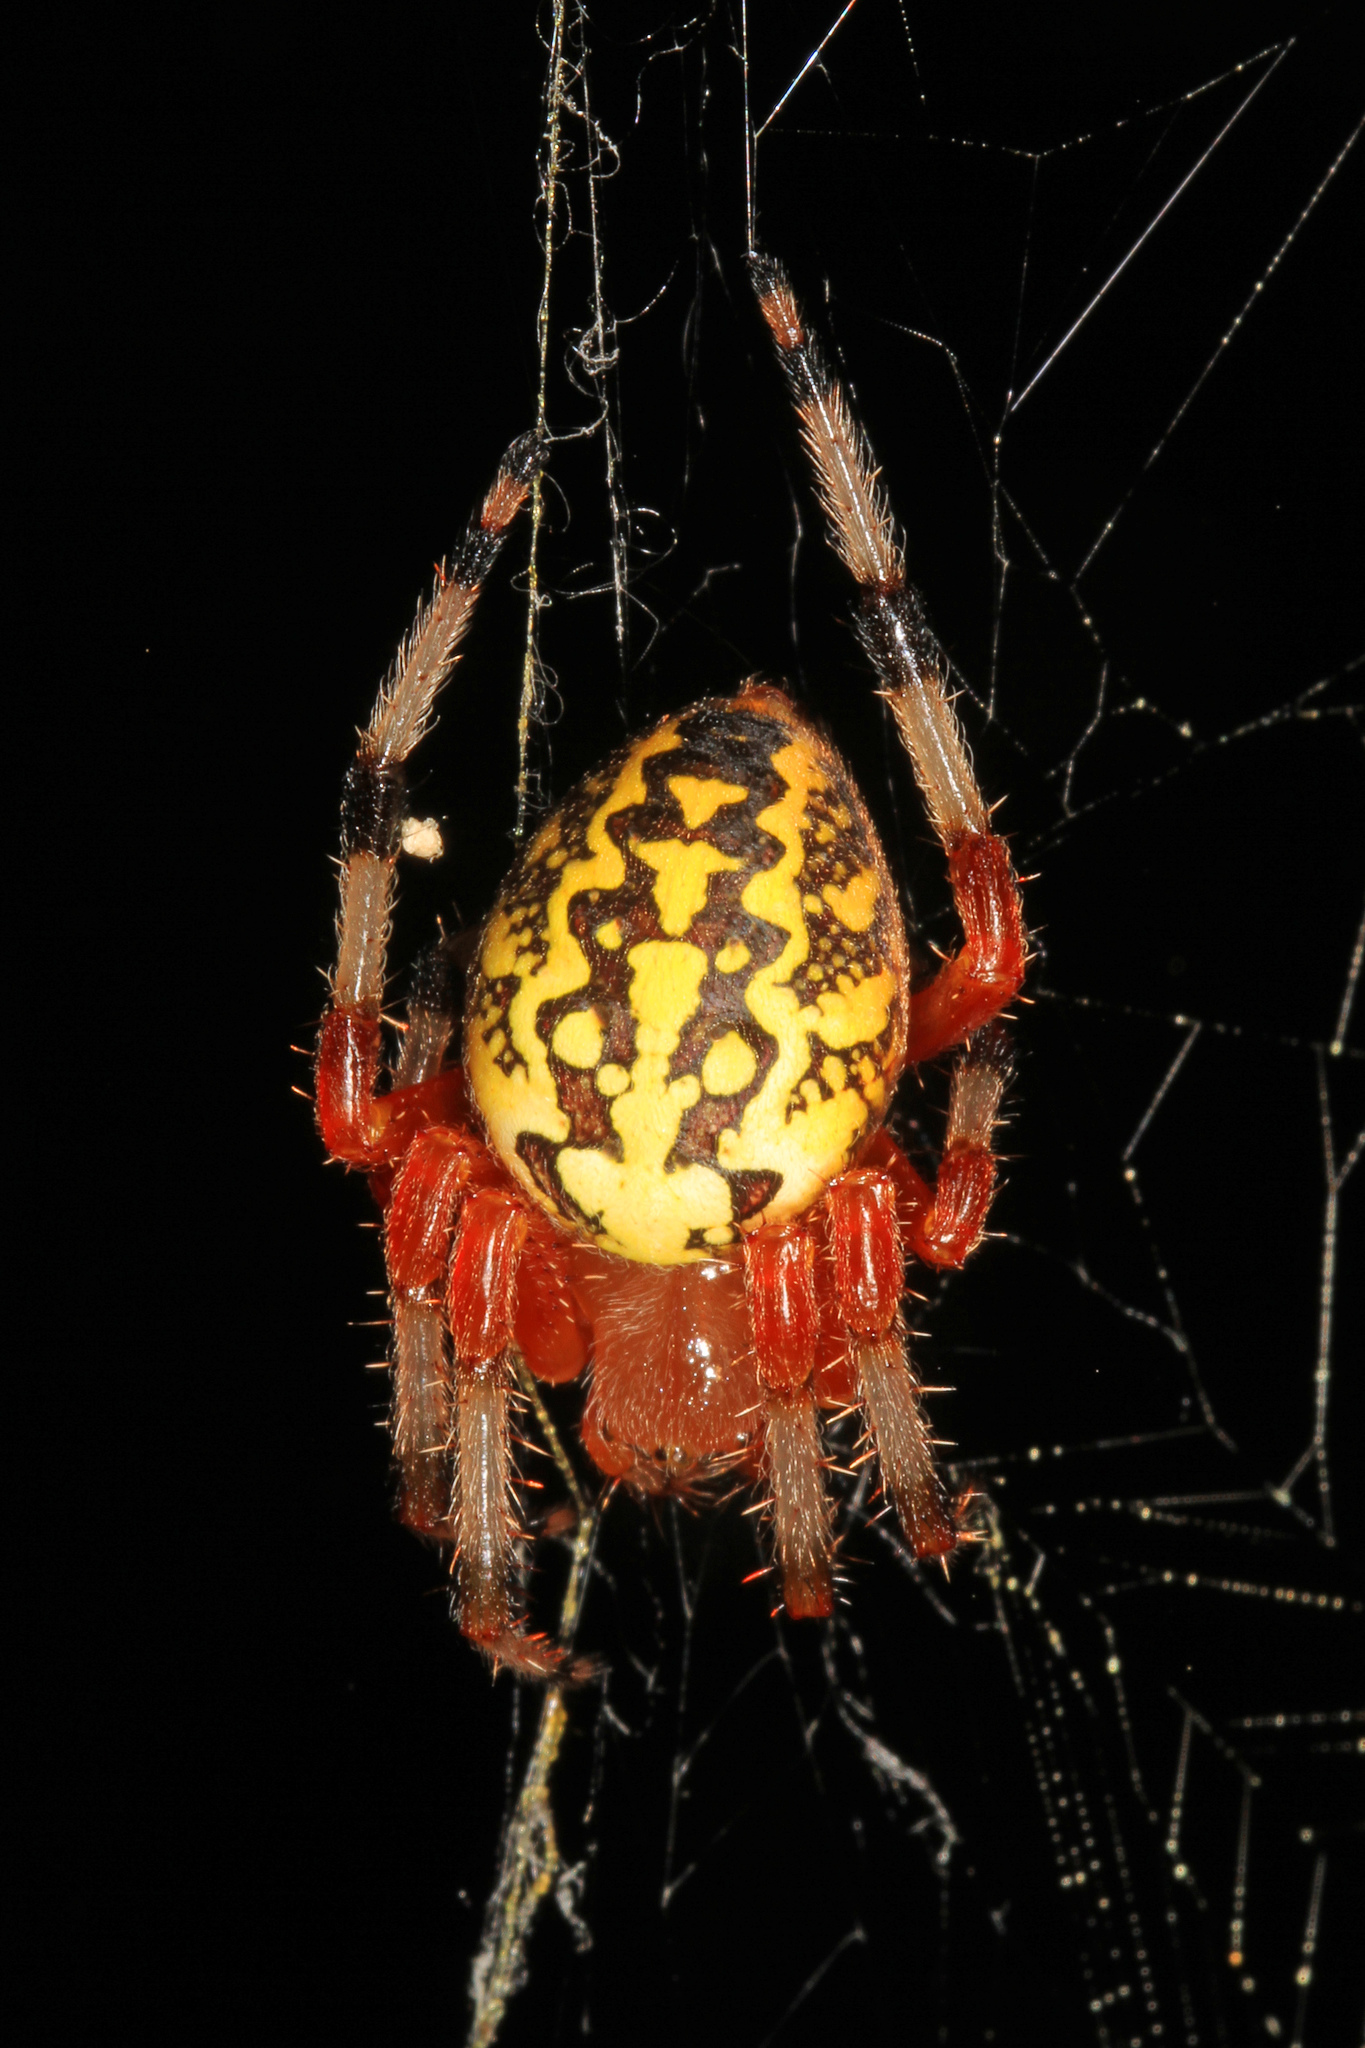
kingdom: Animalia
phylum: Arthropoda
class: Arachnida
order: Araneae
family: Araneidae
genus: Araneus
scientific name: Araneus marmoreus
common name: Marbled orbweaver
